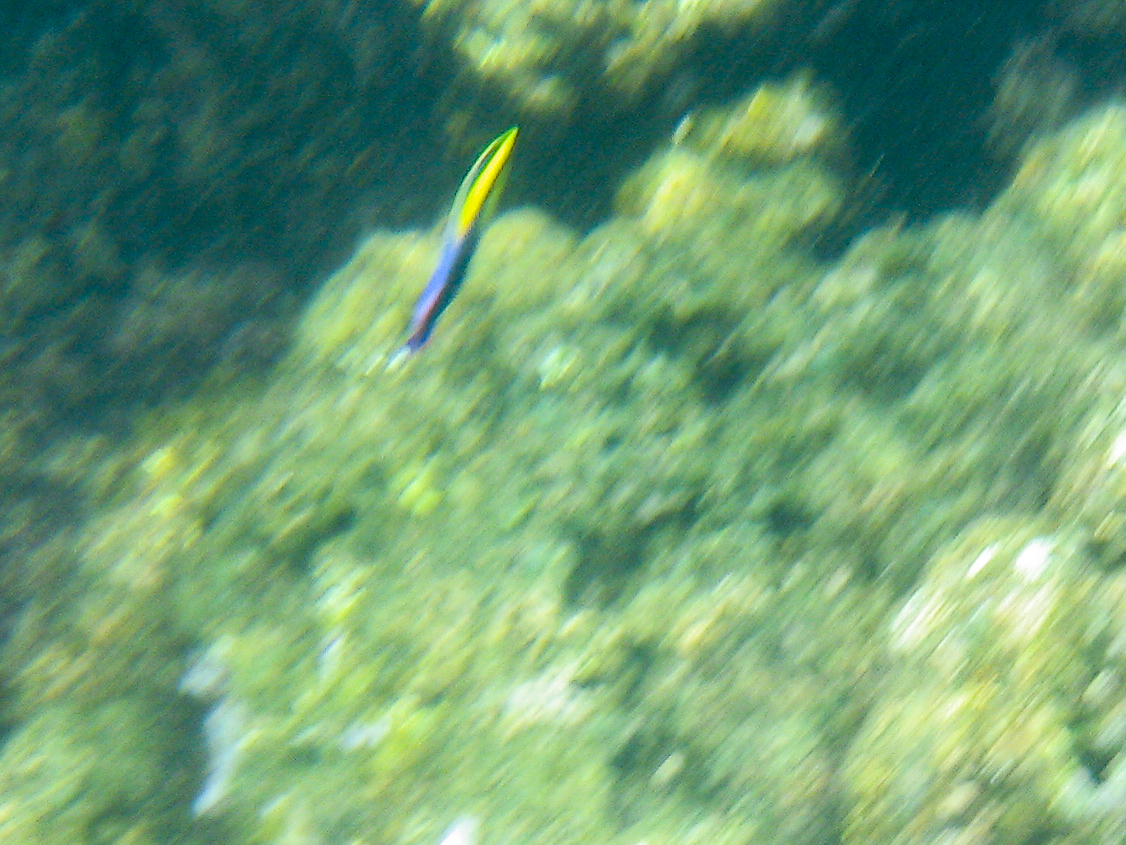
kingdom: Animalia
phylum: Chordata
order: Perciformes
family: Labridae
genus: Labroides
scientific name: Labroides phthirophagus
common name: Cleaner wrasse
